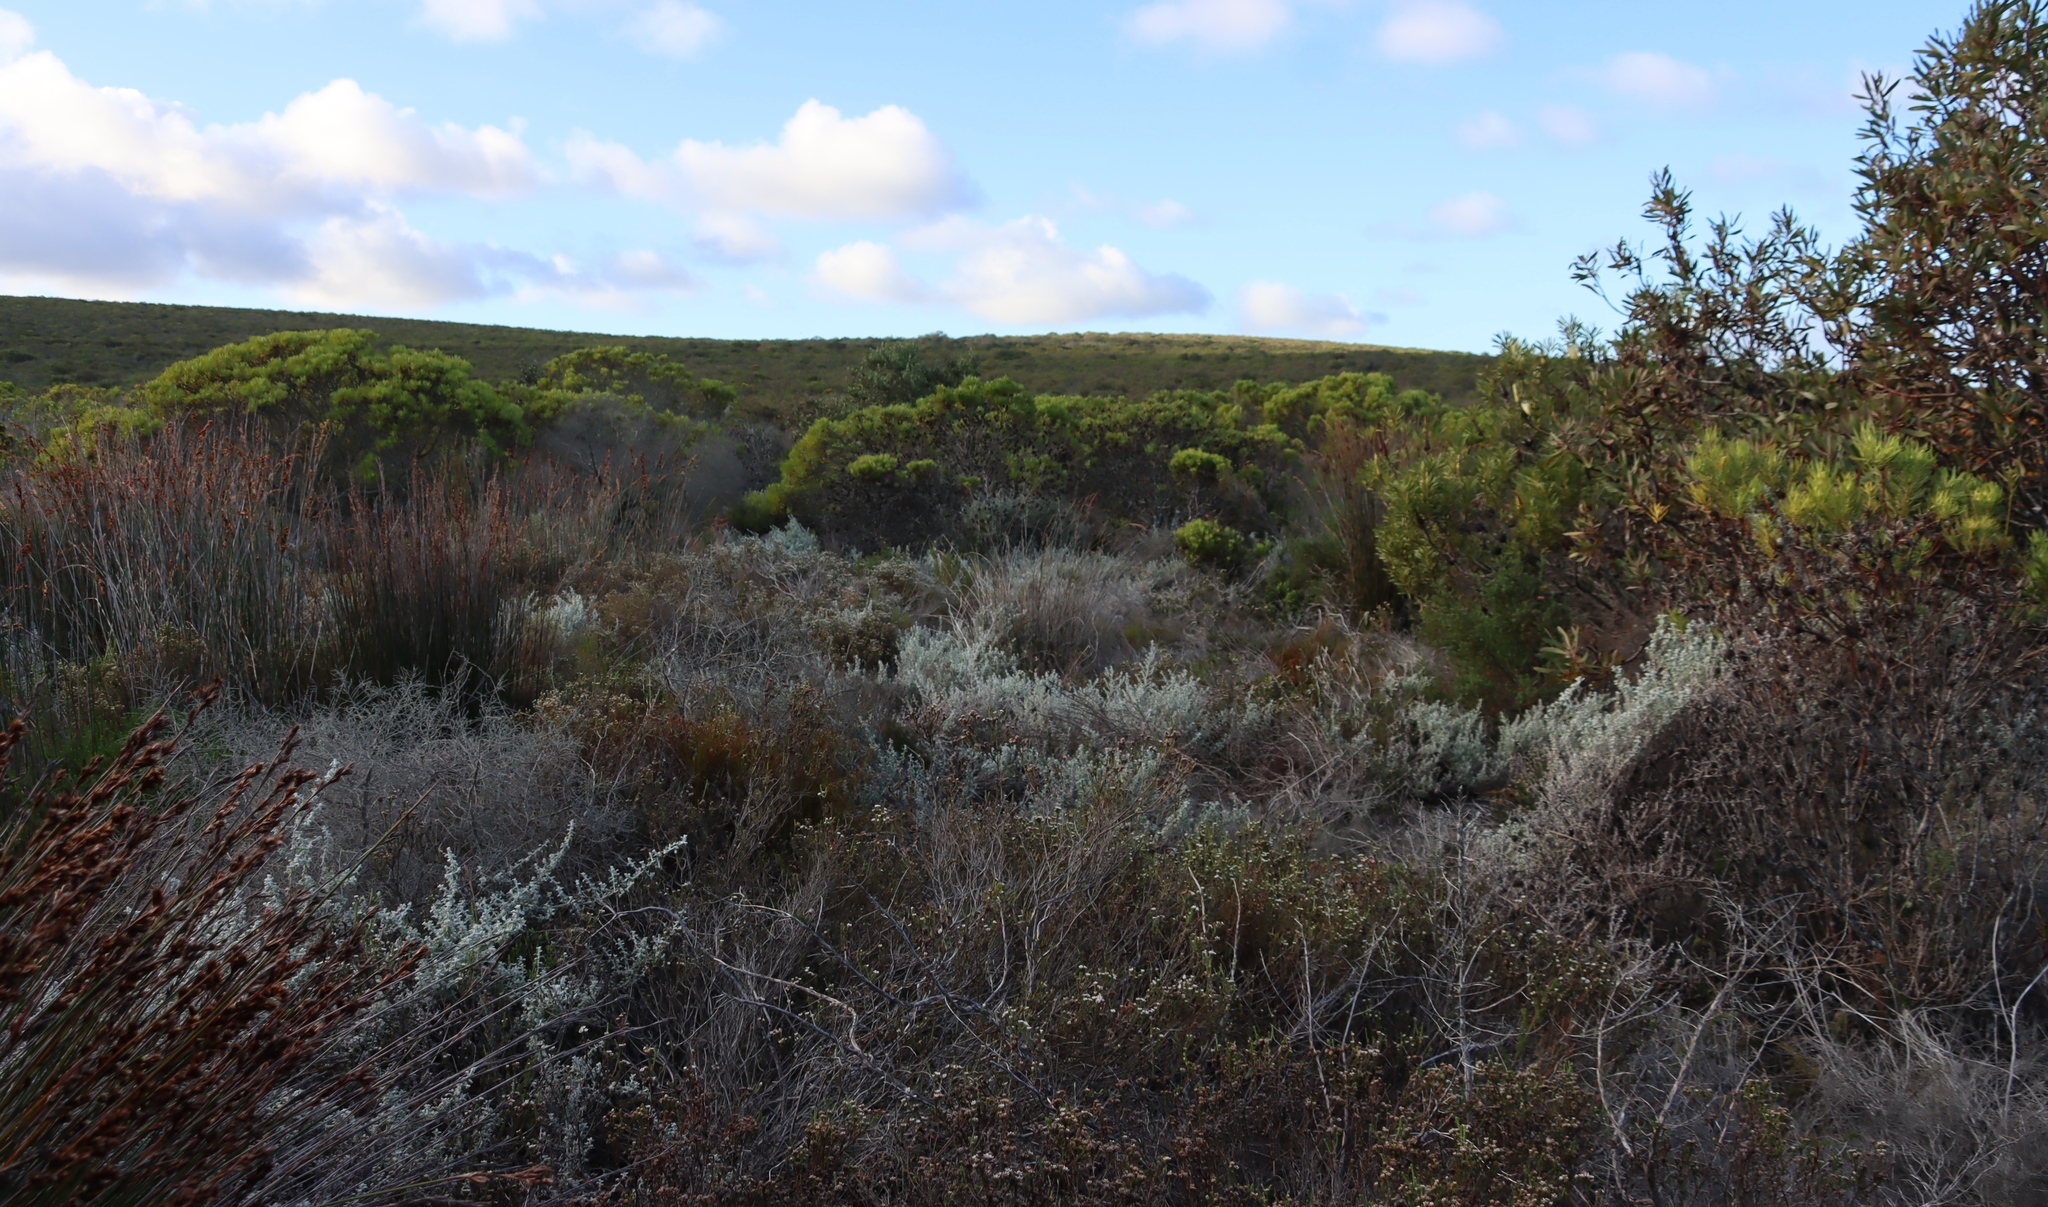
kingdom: Plantae
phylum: Tracheophyta
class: Magnoliopsida
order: Asterales
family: Asteraceae
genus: Seriphium
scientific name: Seriphium plumosum
